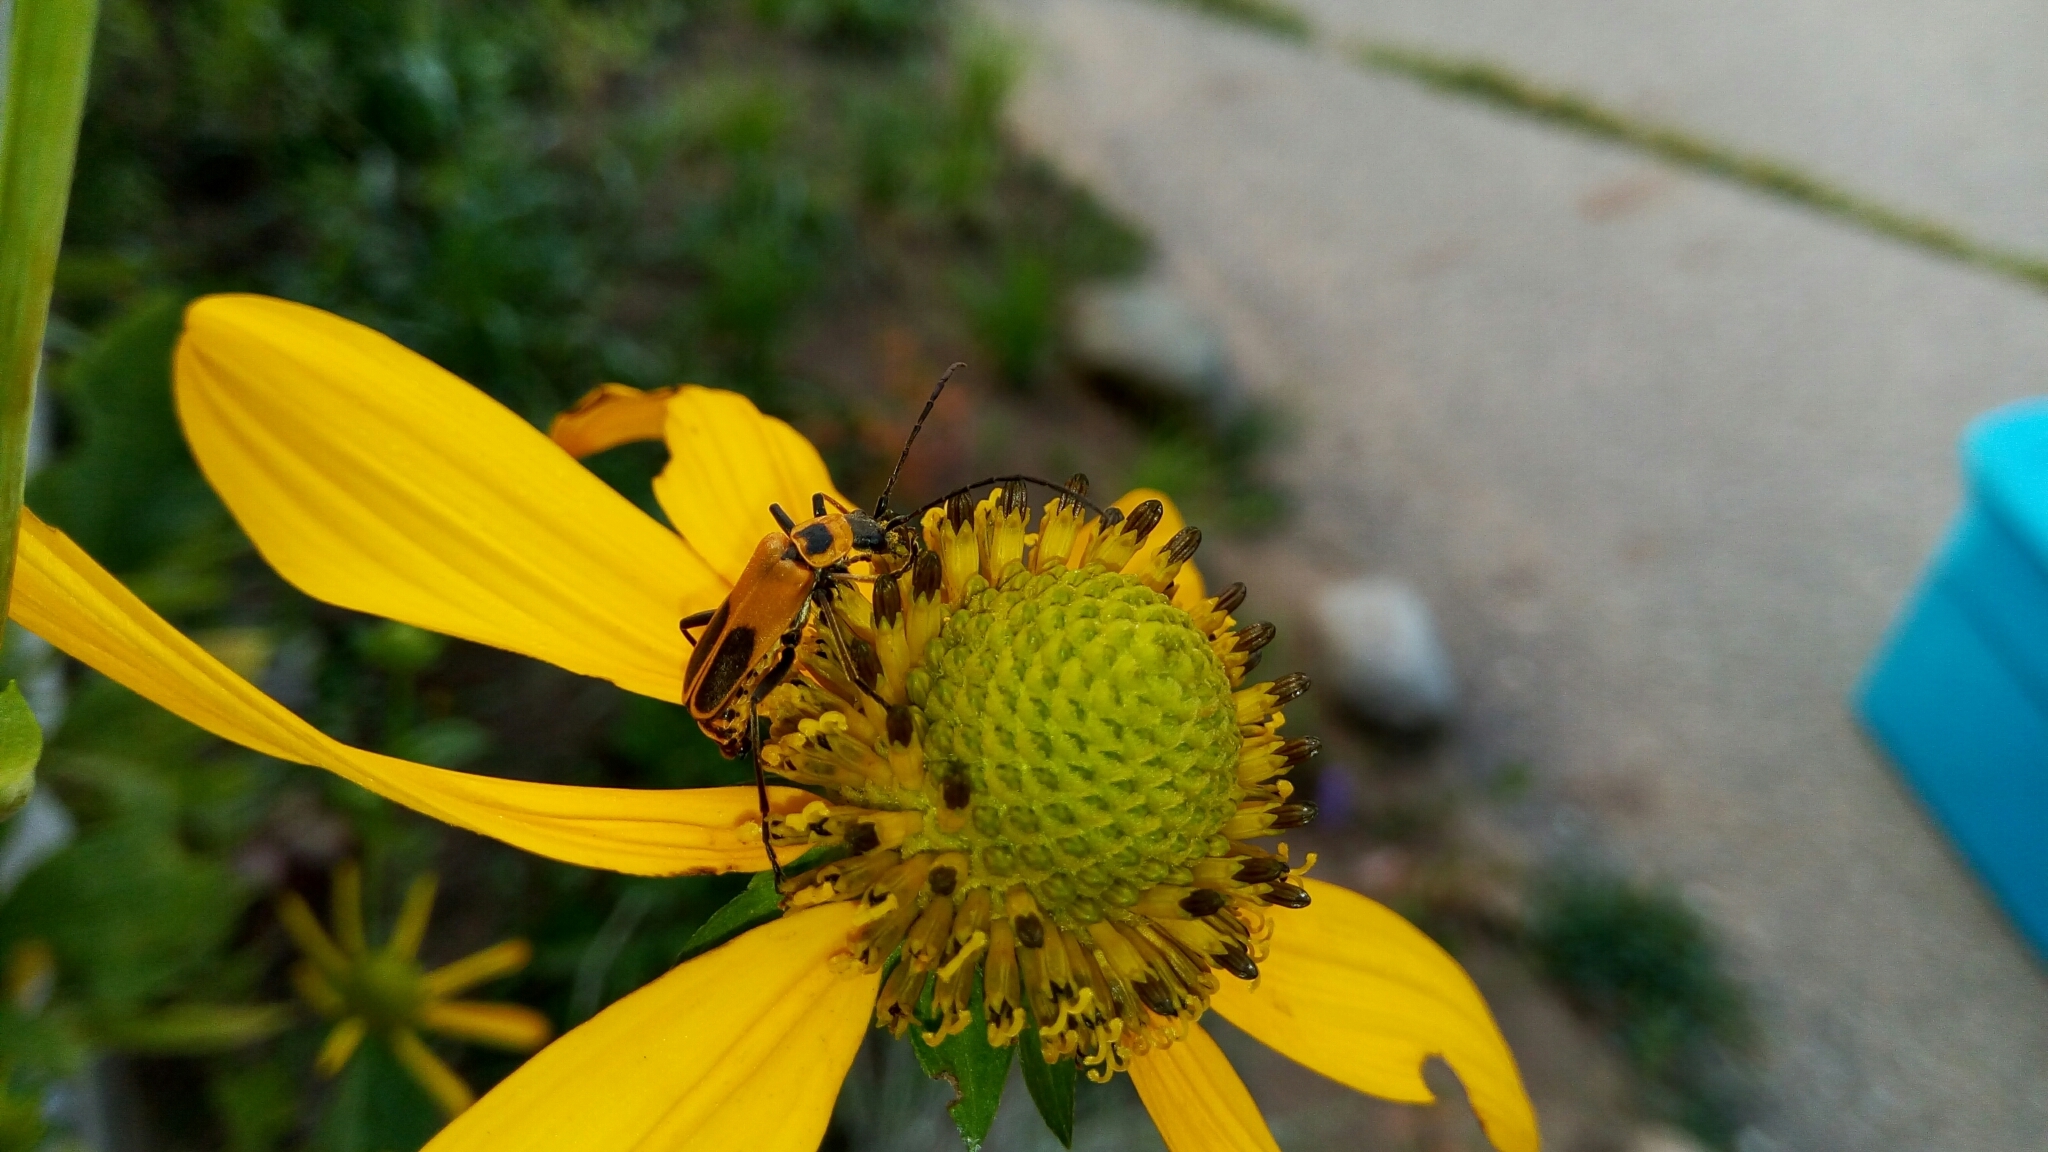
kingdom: Animalia
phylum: Arthropoda
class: Insecta
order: Coleoptera
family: Cantharidae
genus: Chauliognathus
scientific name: Chauliognathus pensylvanicus
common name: Goldenrod soldier beetle
